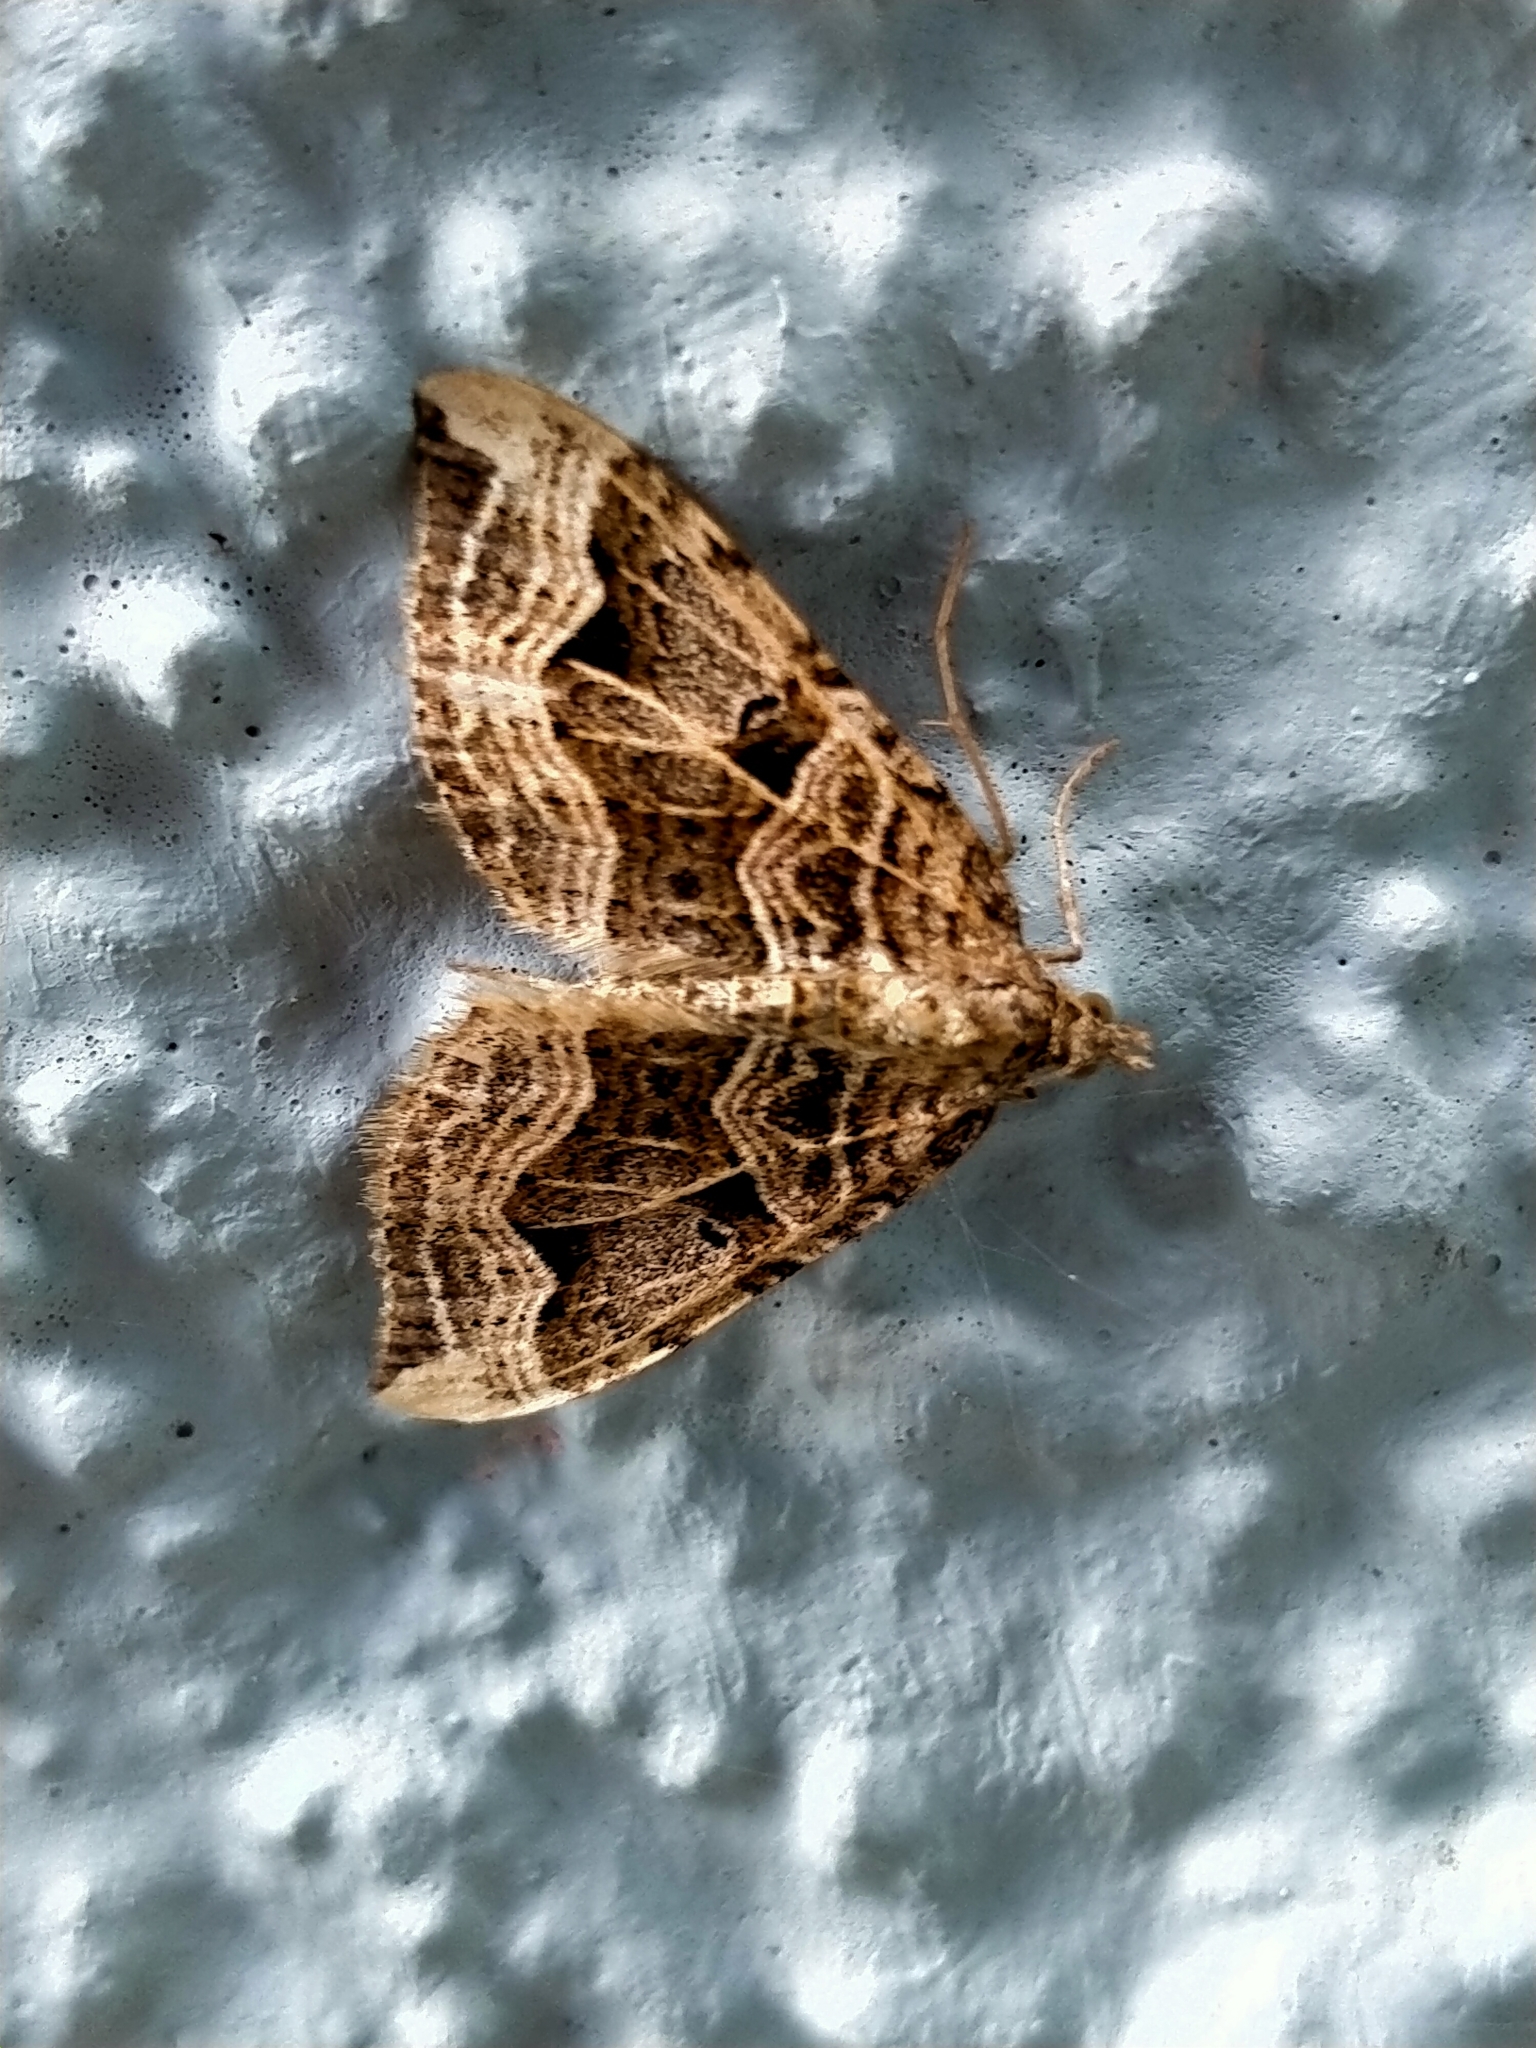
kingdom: Animalia
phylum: Arthropoda
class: Insecta
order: Lepidoptera
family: Geometridae
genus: Xanthorhoe
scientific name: Xanthorhoe semifissata
